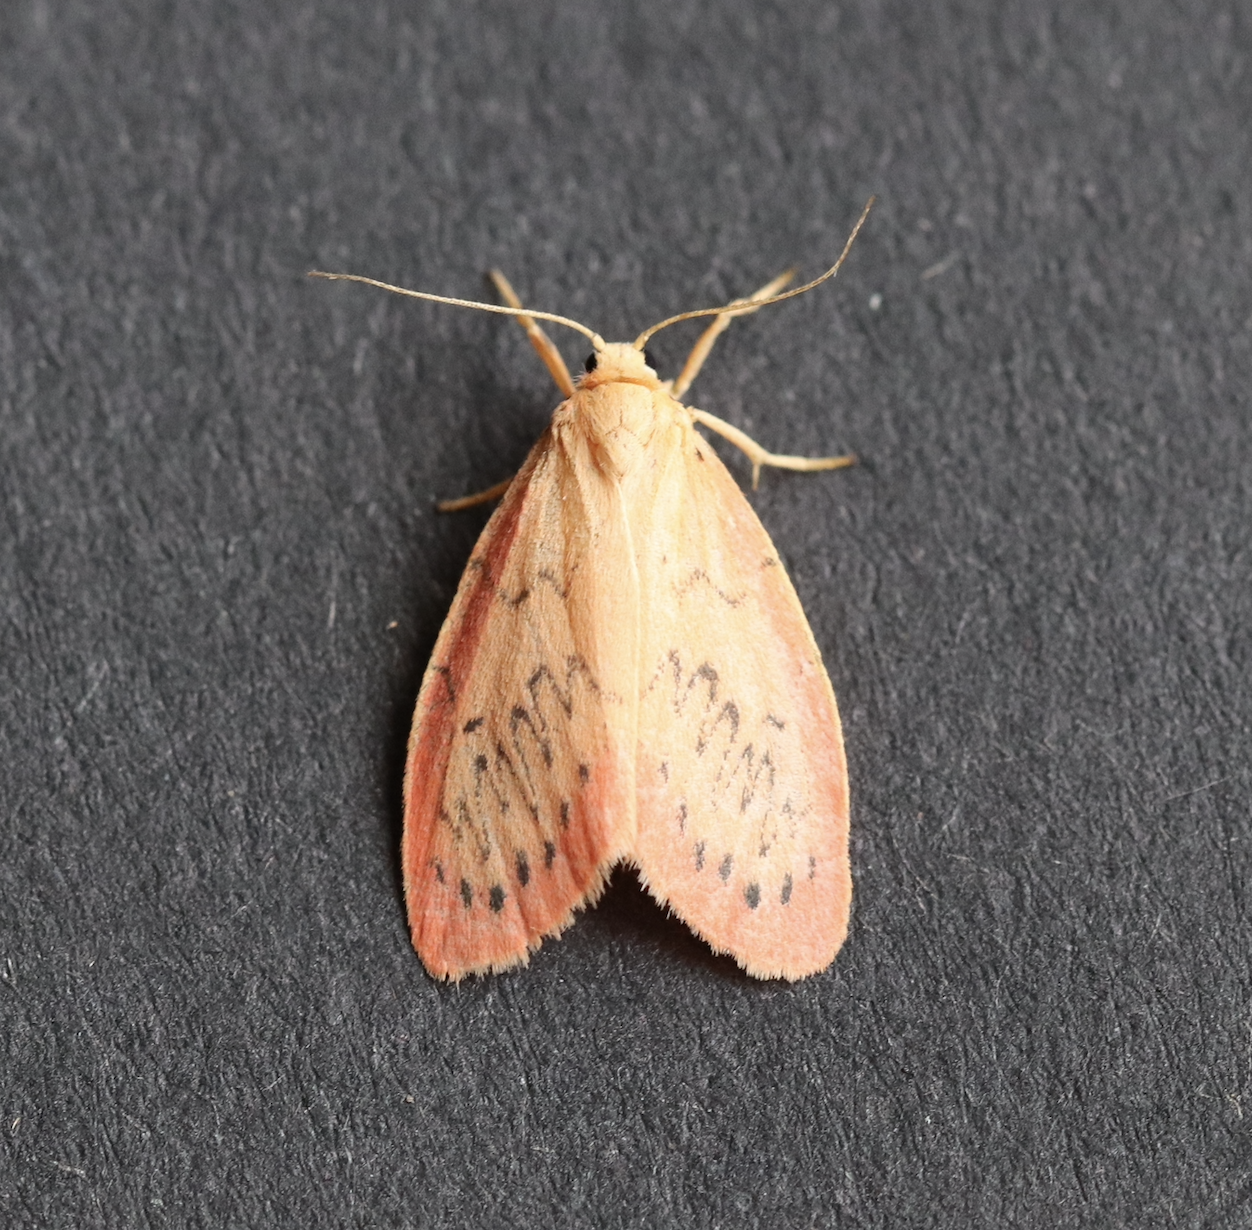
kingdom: Animalia
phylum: Arthropoda
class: Insecta
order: Lepidoptera
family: Erebidae
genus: Miltochrista
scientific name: Miltochrista miniata
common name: Rosy footman
